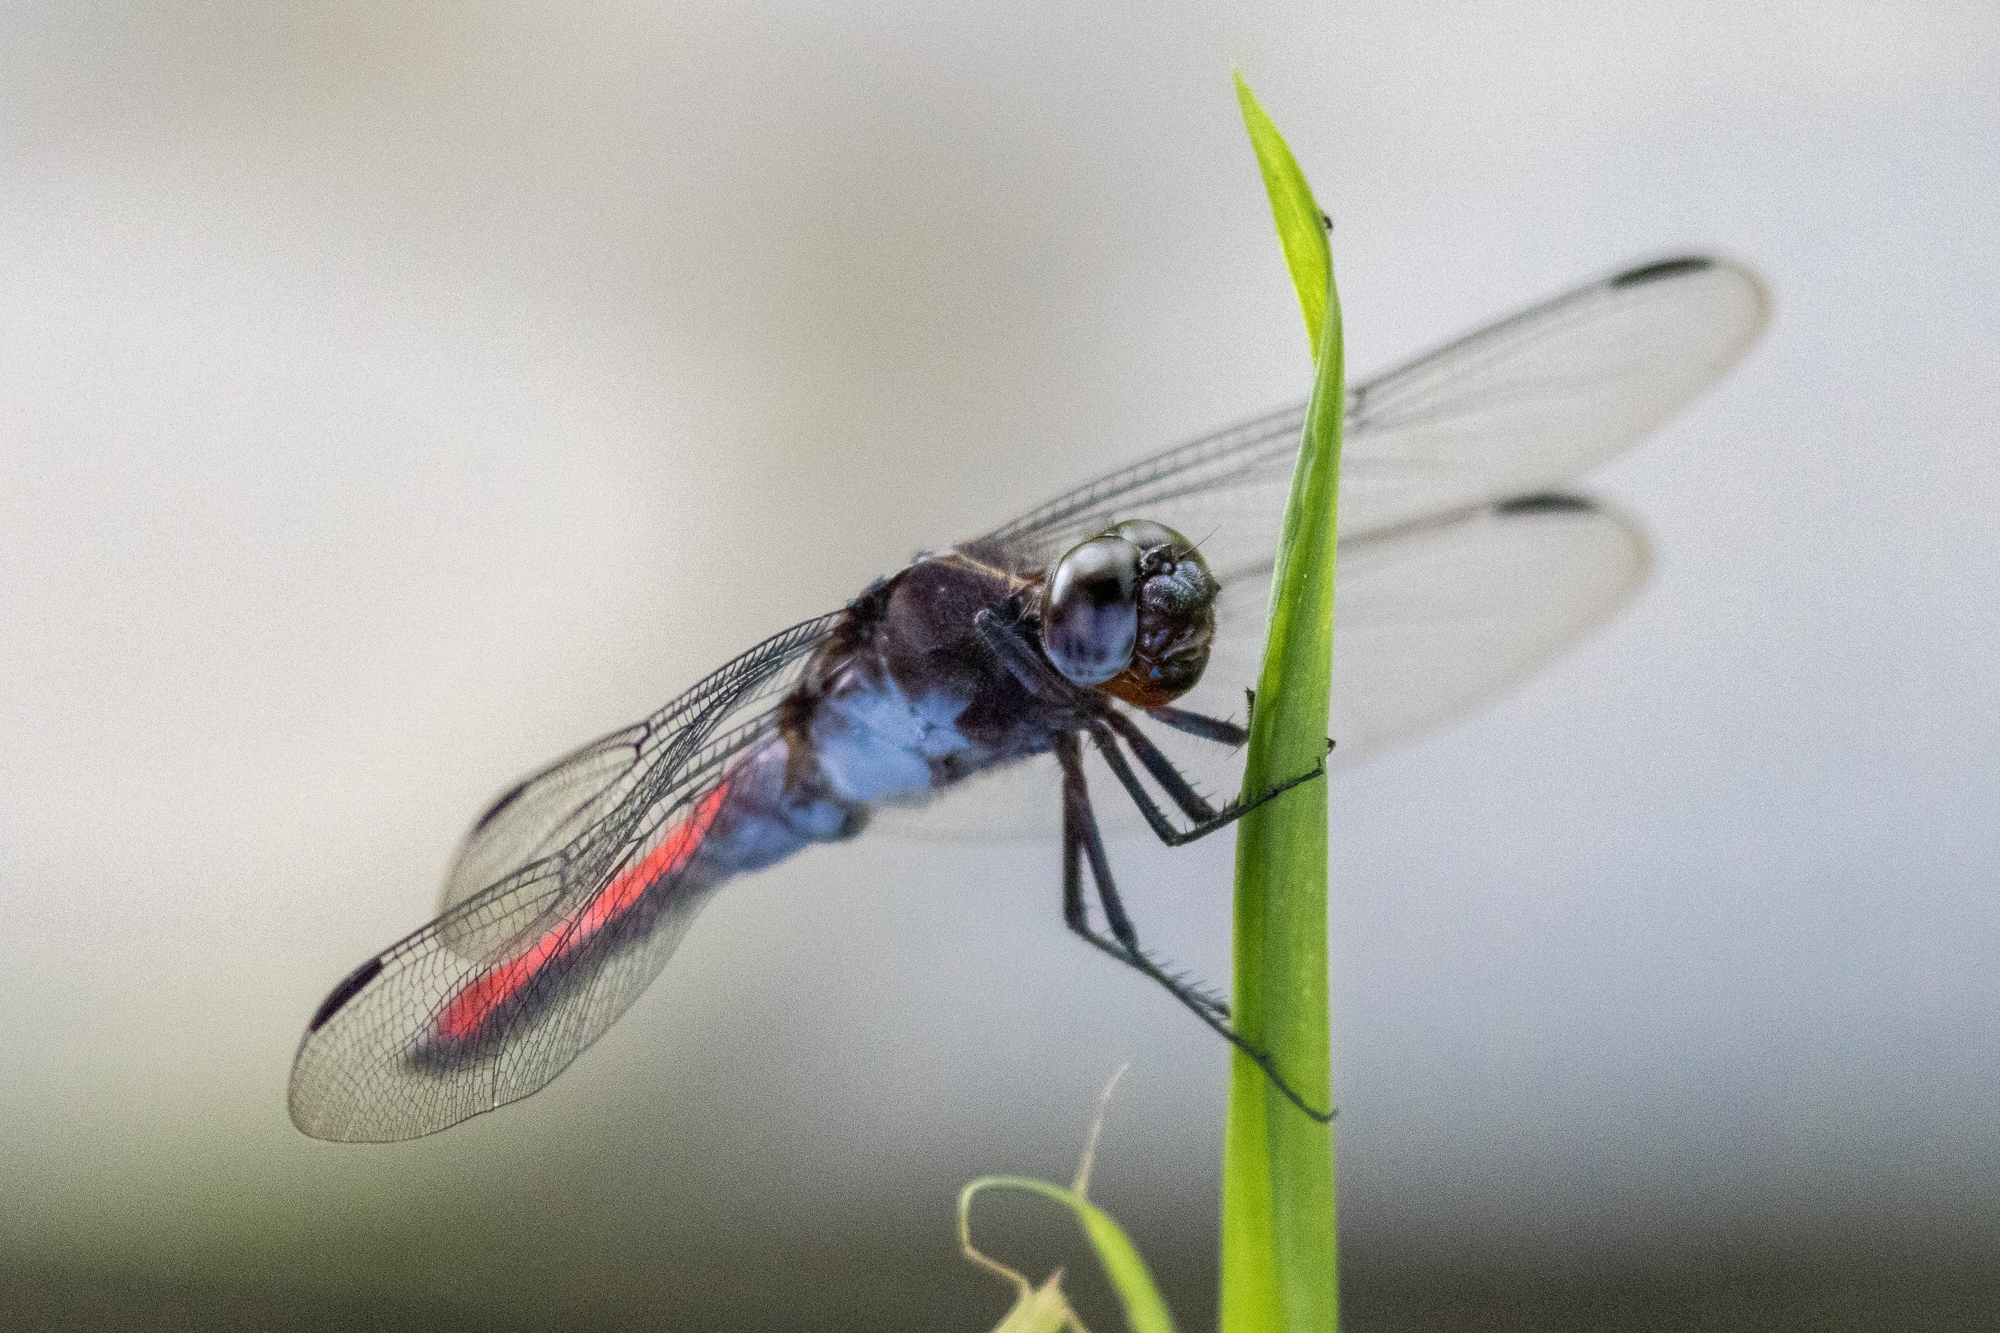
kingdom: Animalia
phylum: Arthropoda
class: Insecta
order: Odonata
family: Libellulidae
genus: Libellula
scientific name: Libellula herculea
